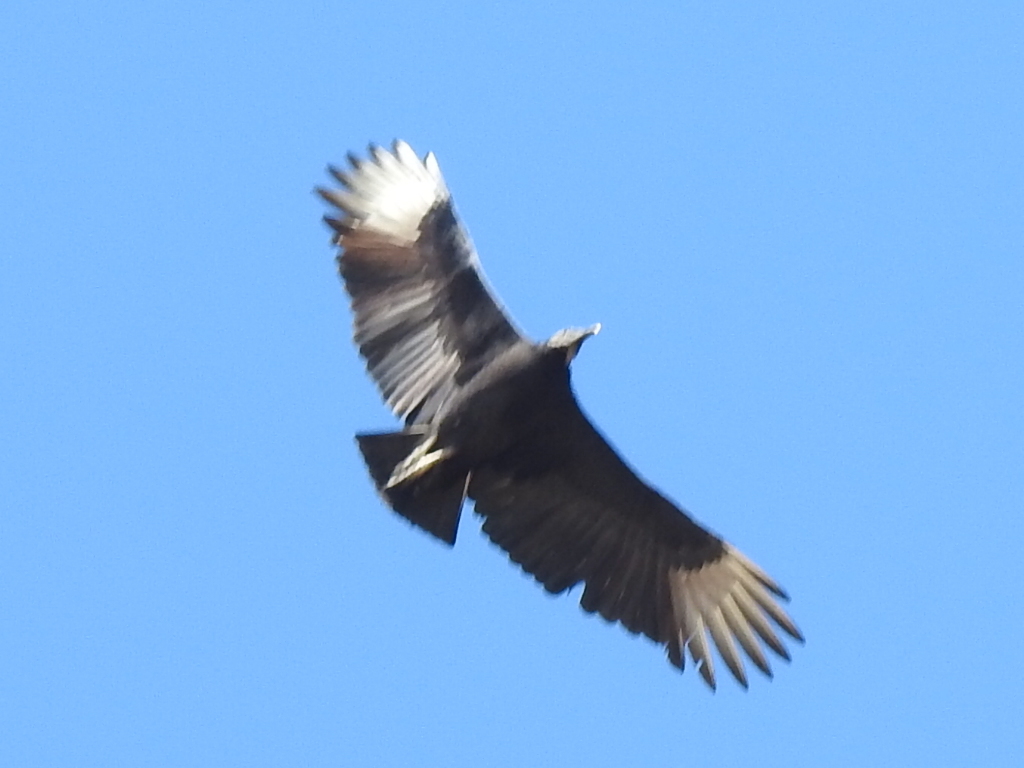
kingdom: Animalia
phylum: Chordata
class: Aves
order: Accipitriformes
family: Cathartidae
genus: Coragyps
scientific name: Coragyps atratus
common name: Black vulture
